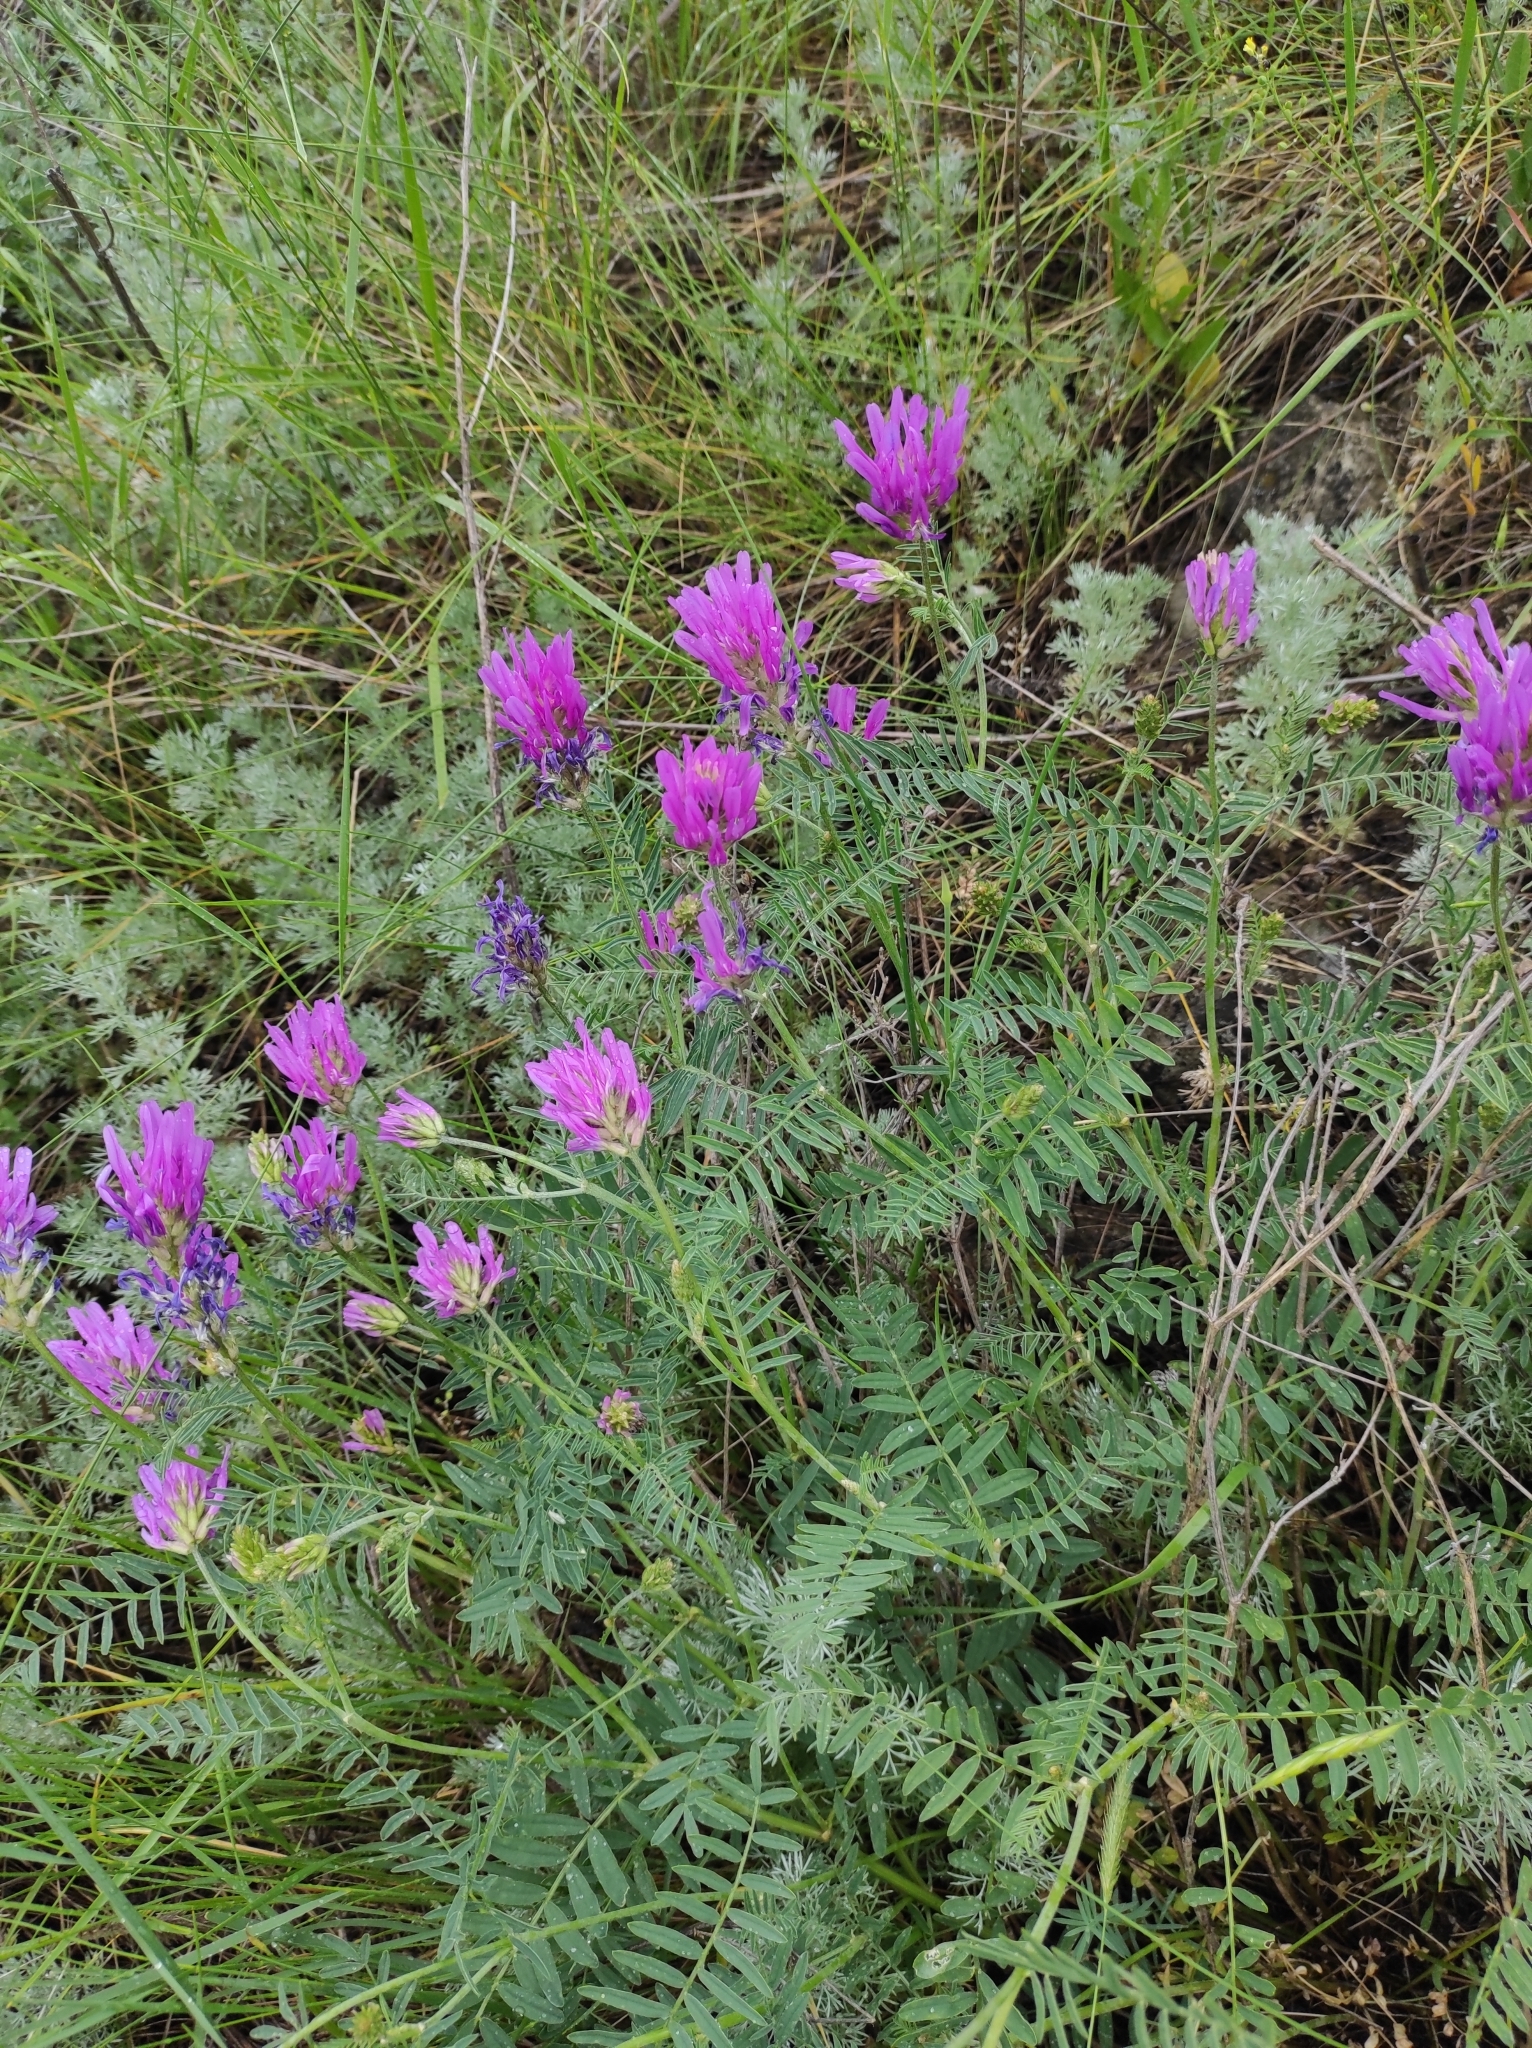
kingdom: Plantae
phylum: Tracheophyta
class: Magnoliopsida
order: Fabales
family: Fabaceae
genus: Astragalus
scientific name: Astragalus onobrychis
